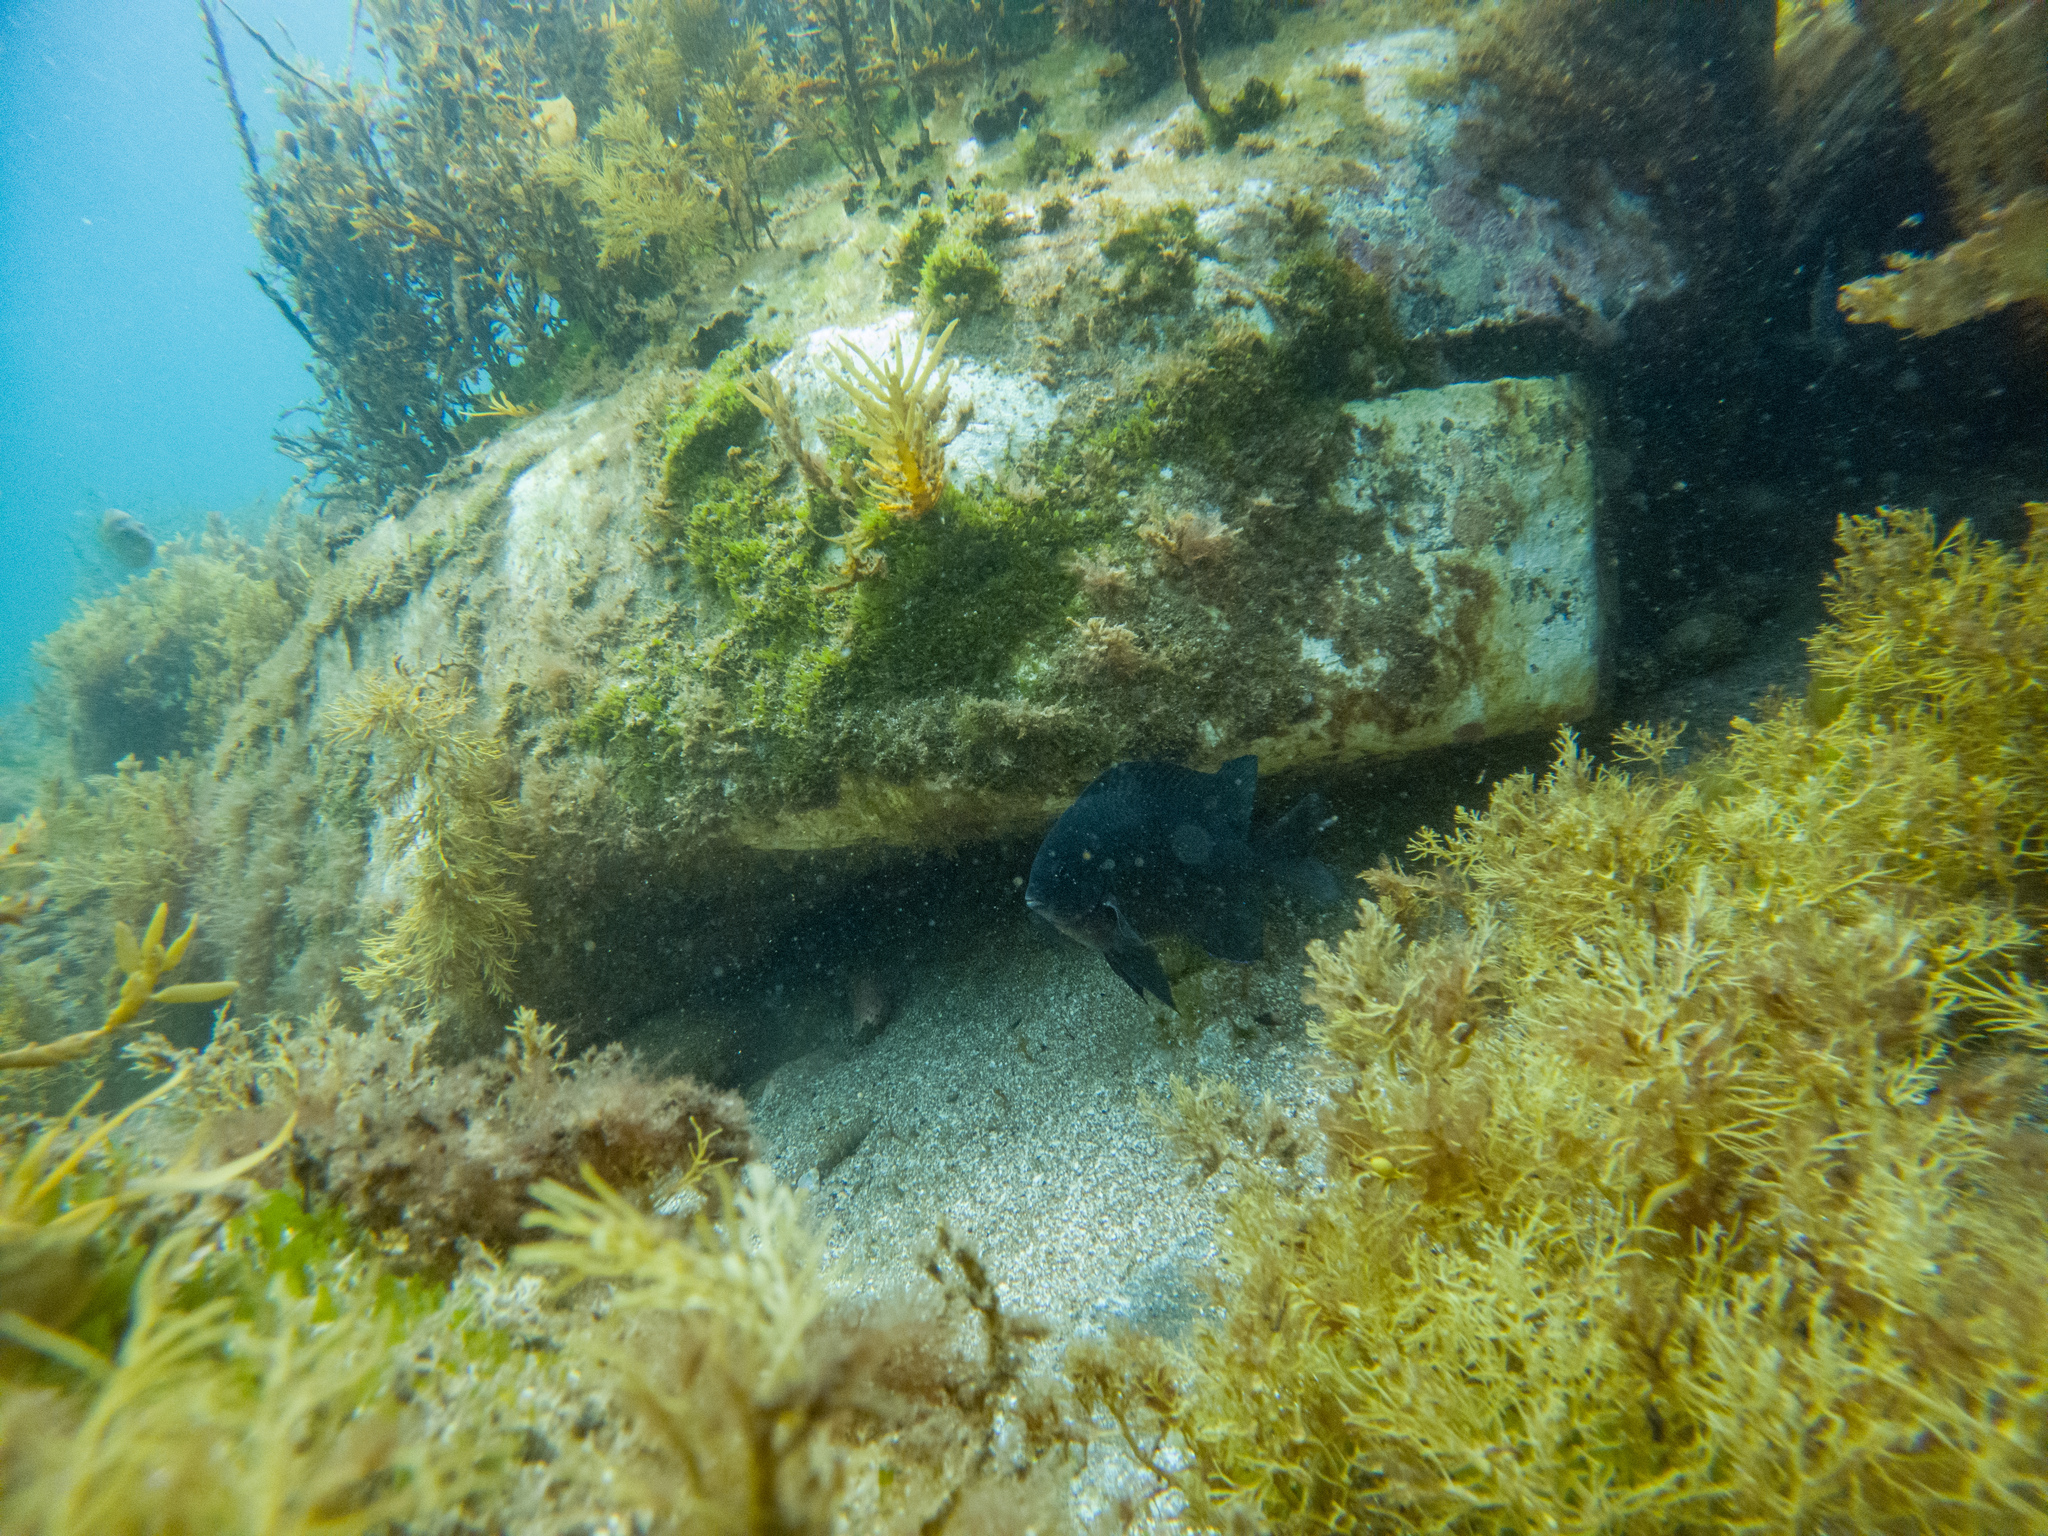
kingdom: Animalia
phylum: Chordata
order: Perciformes
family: Pomacentridae
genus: Parma
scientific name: Parma alboscapularis
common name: Black angelfish
